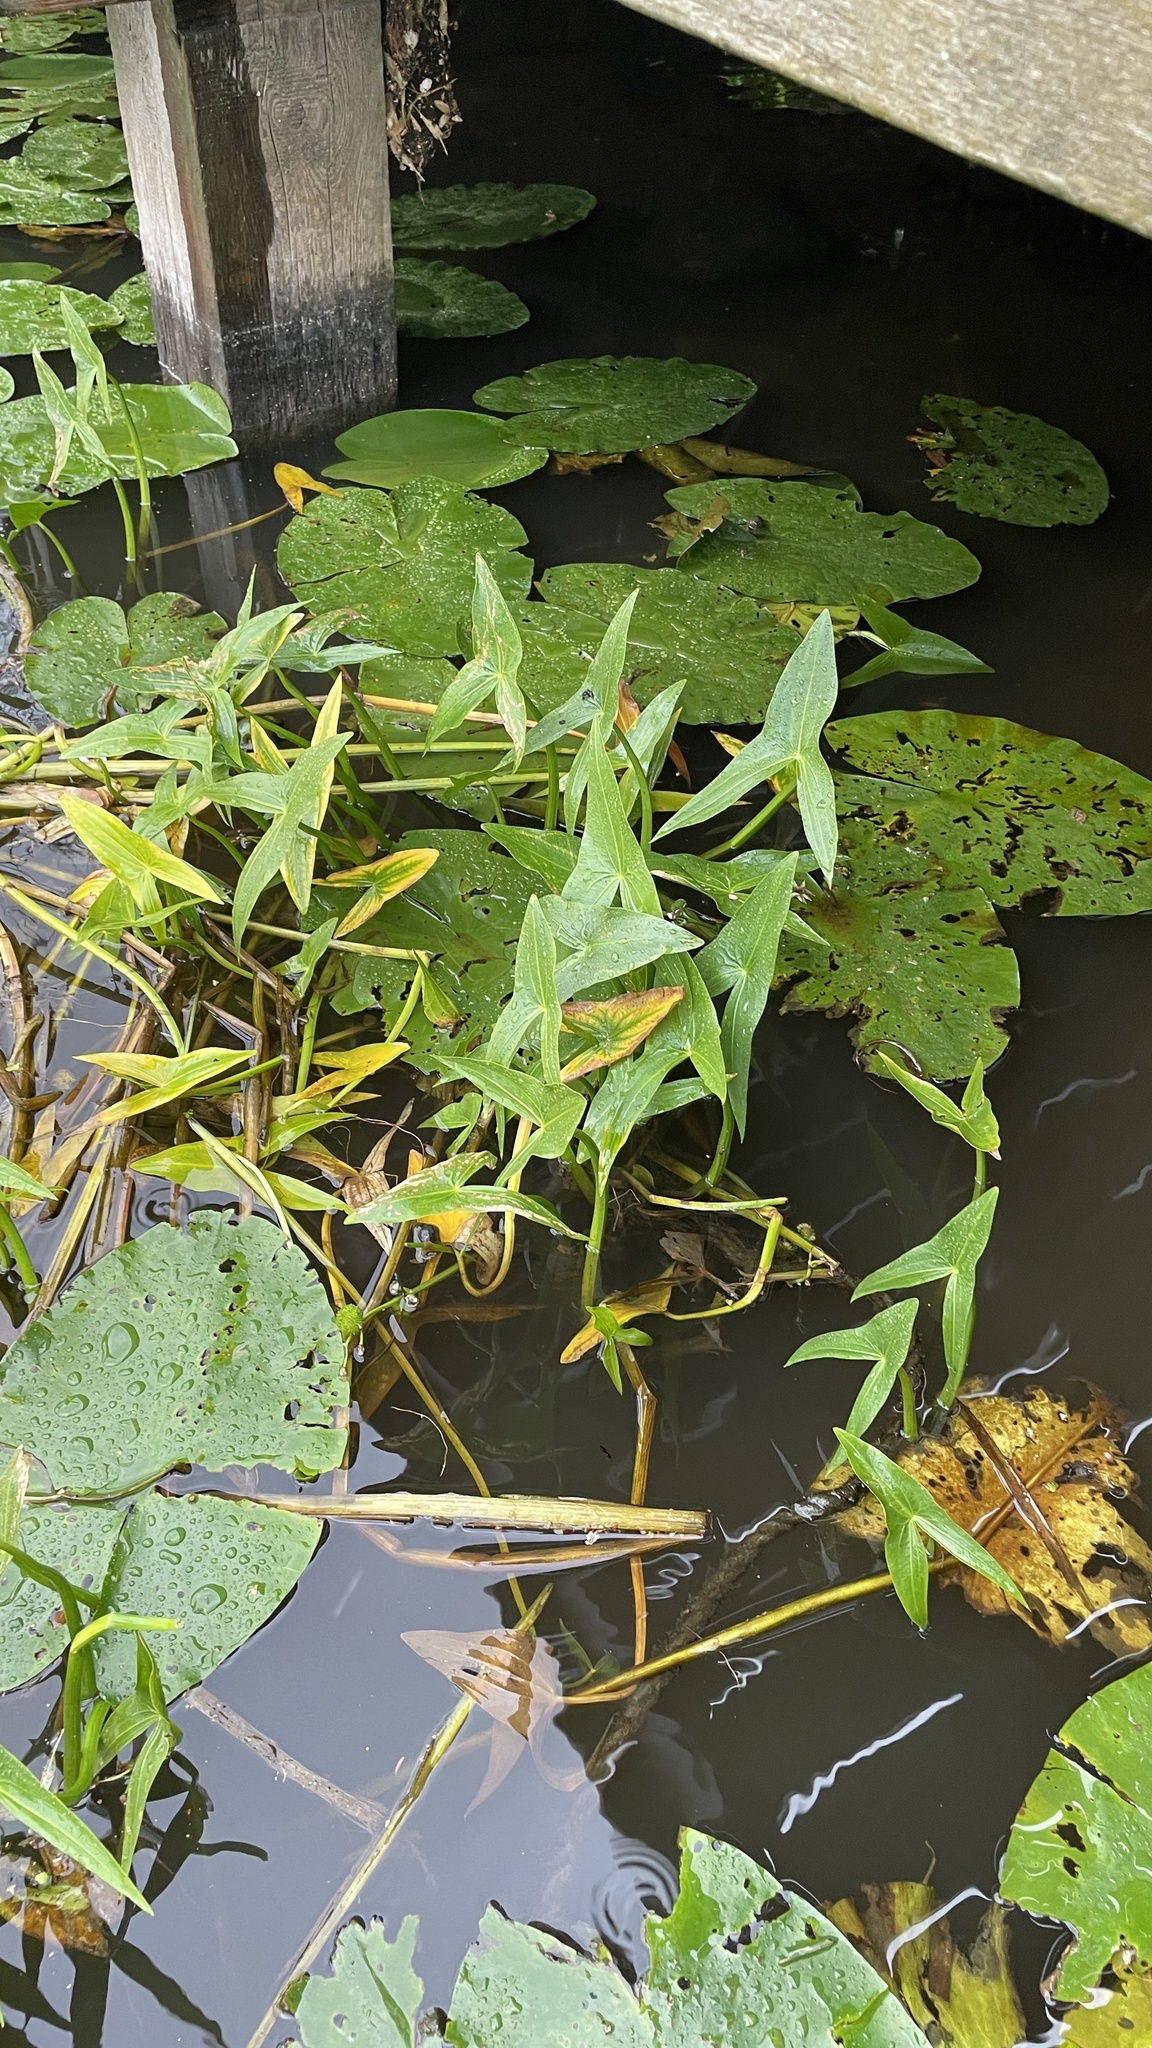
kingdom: Plantae
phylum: Tracheophyta
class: Liliopsida
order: Alismatales
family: Alismataceae
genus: Sagittaria
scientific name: Sagittaria sagittifolia
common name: Arrowhead
